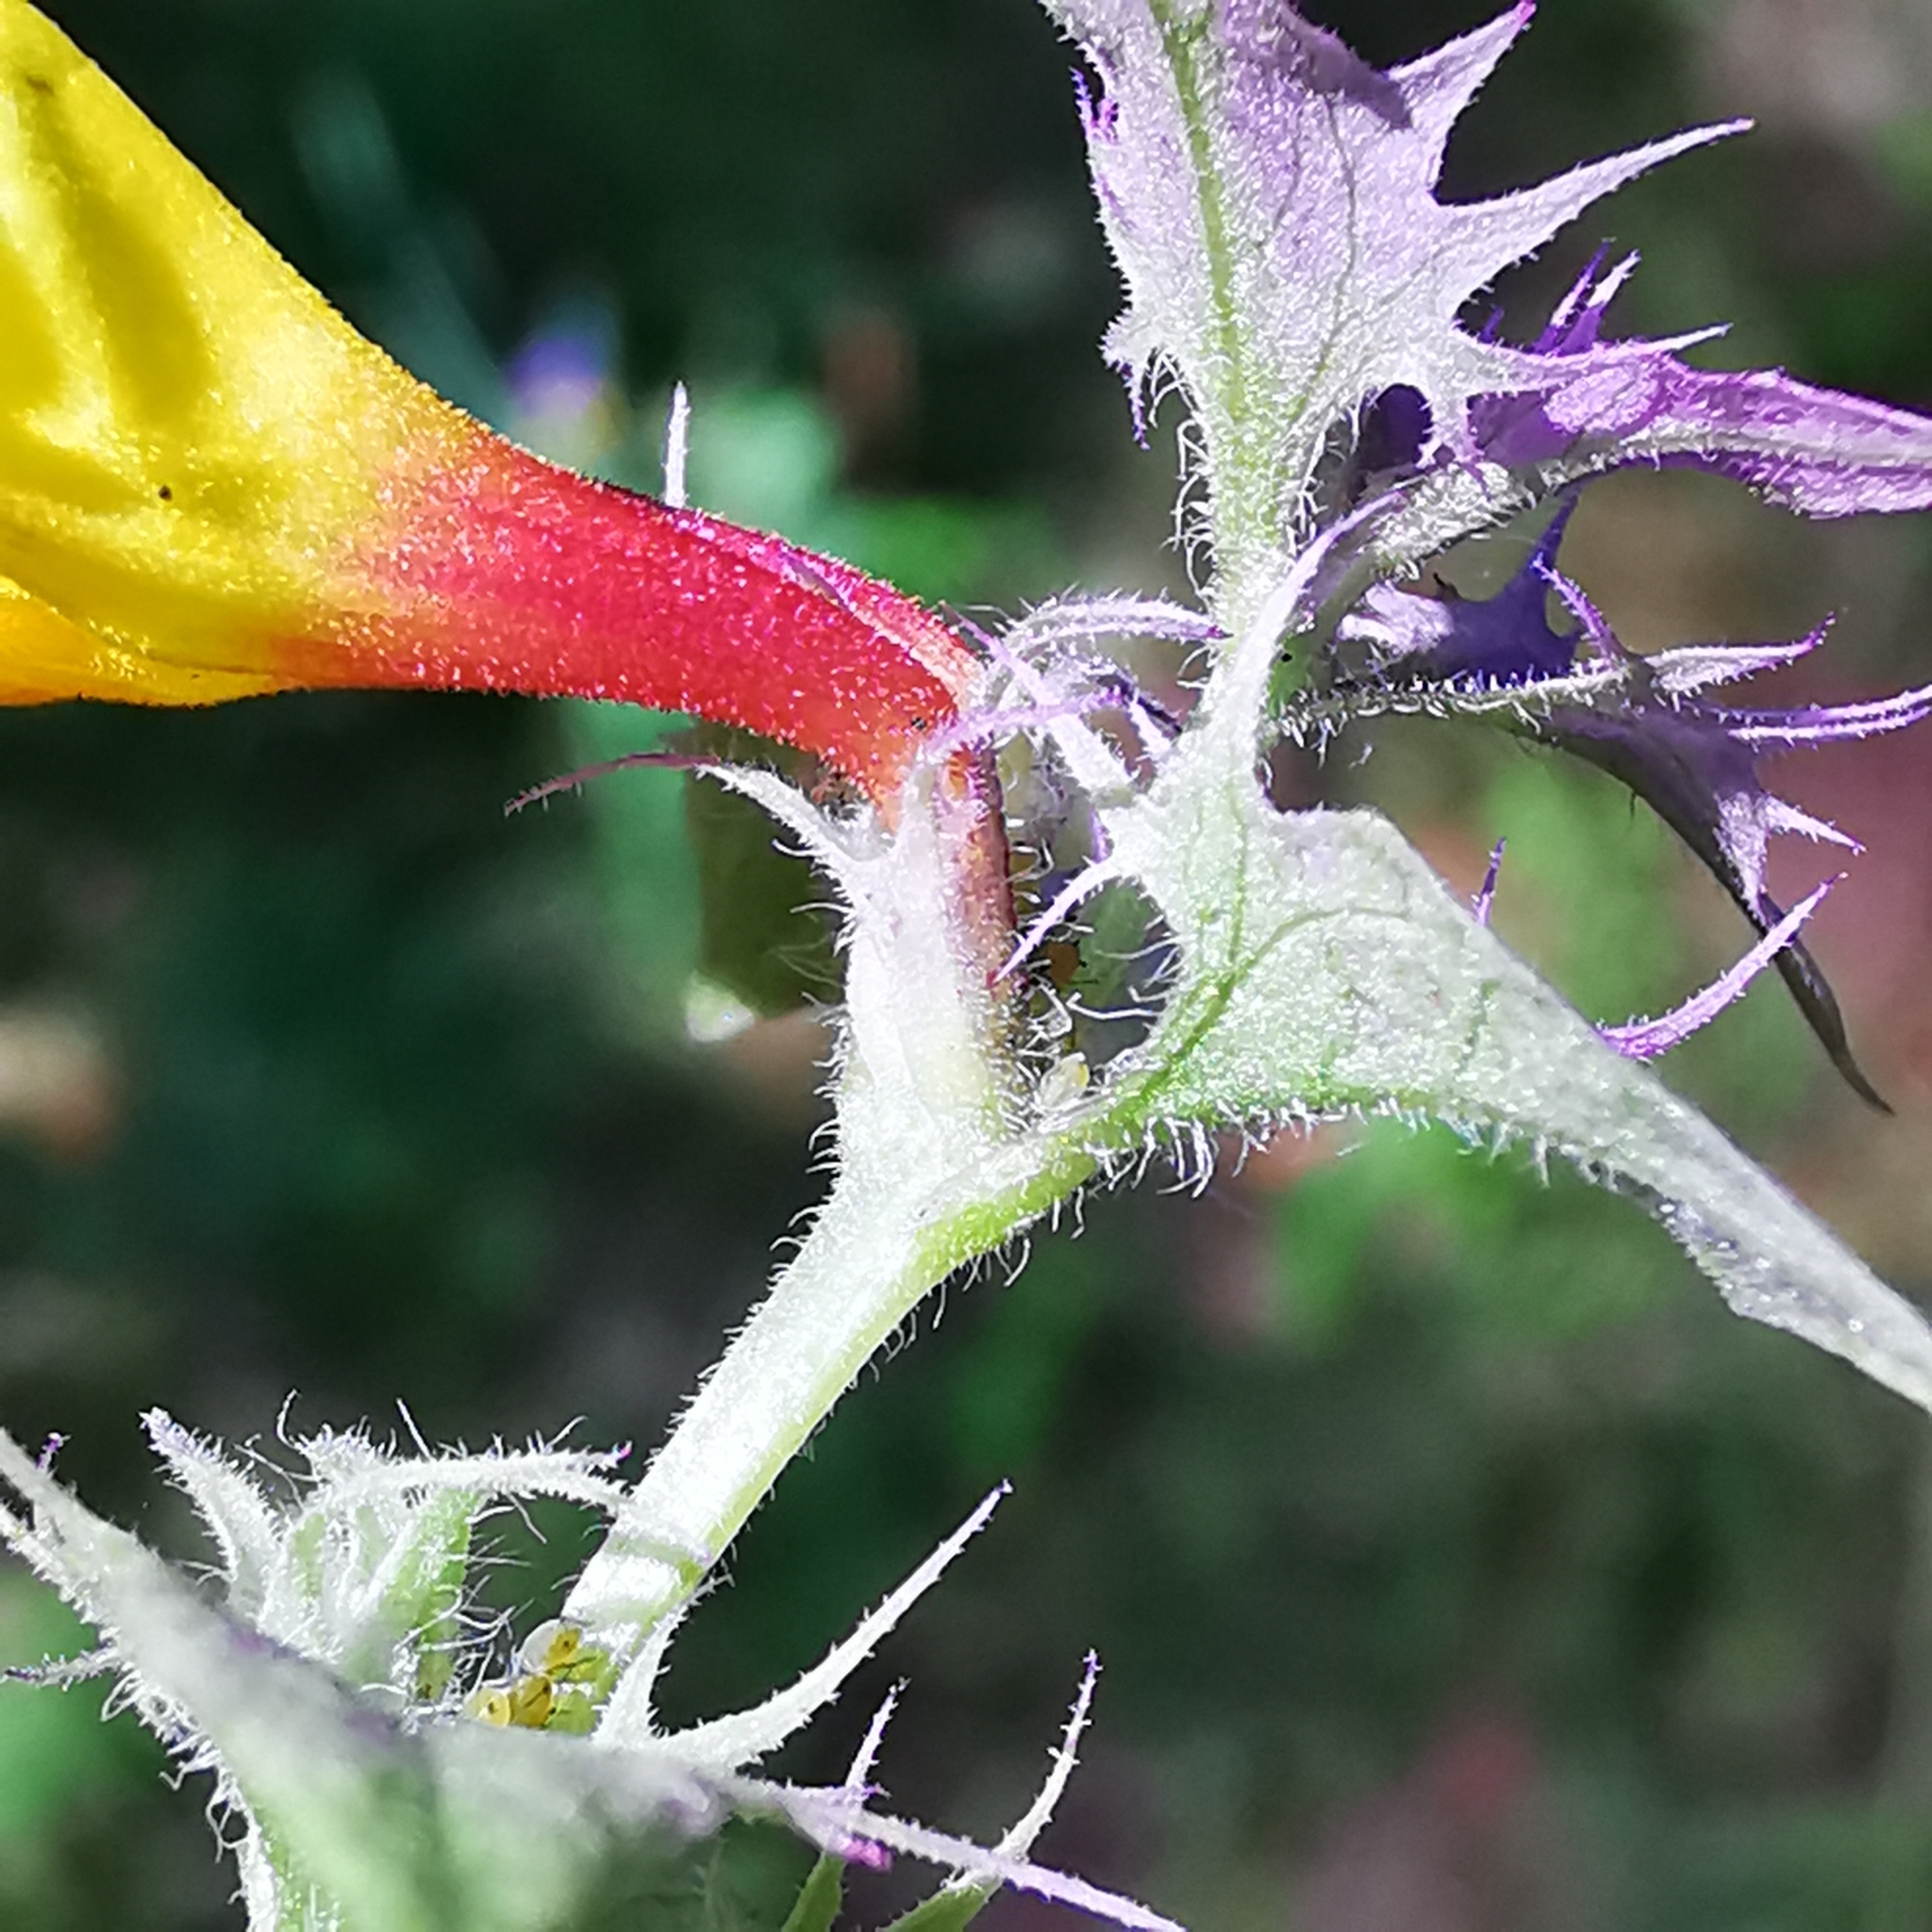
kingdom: Plantae
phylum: Tracheophyta
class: Magnoliopsida
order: Lamiales
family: Orobanchaceae
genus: Melampyrum
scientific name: Melampyrum nemorosum
